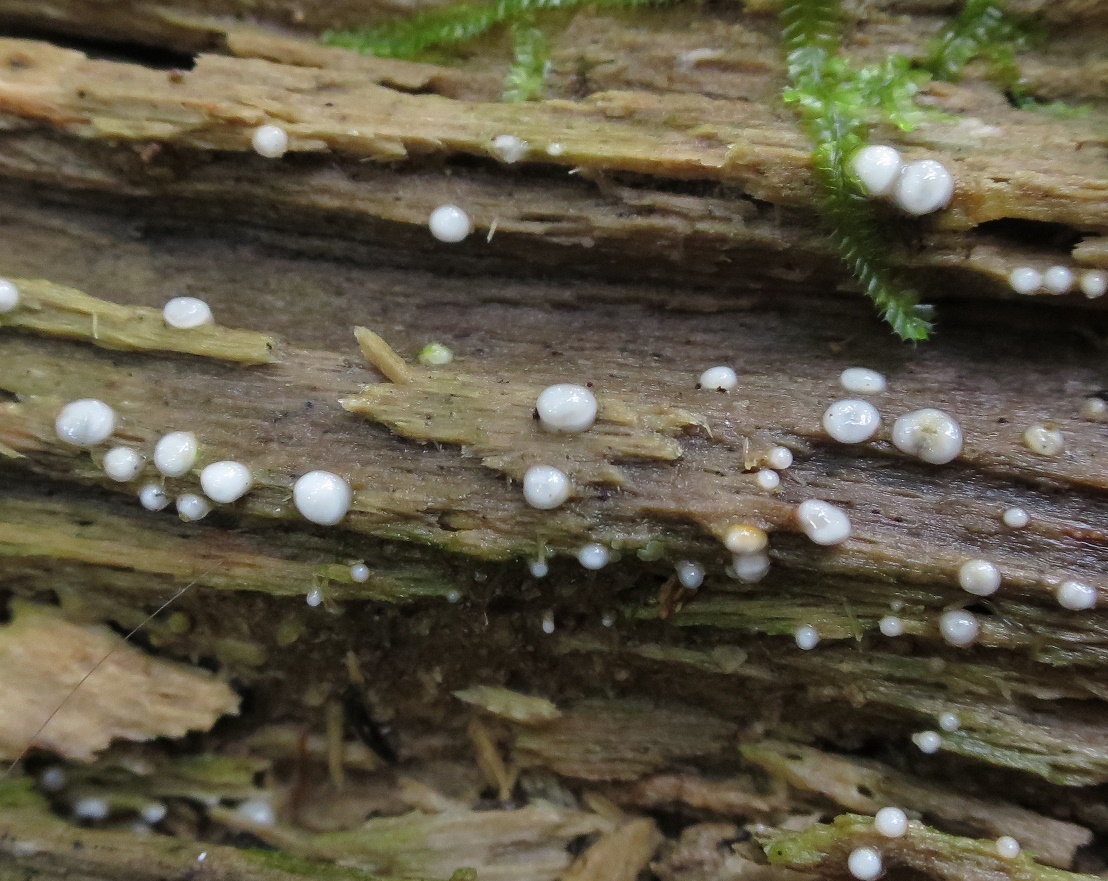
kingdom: Fungi
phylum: Basidiomycota
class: Atractiellomycetes
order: Atractiellales
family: Phleogenaceae
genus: Helicogloea
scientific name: Helicogloea compressa
